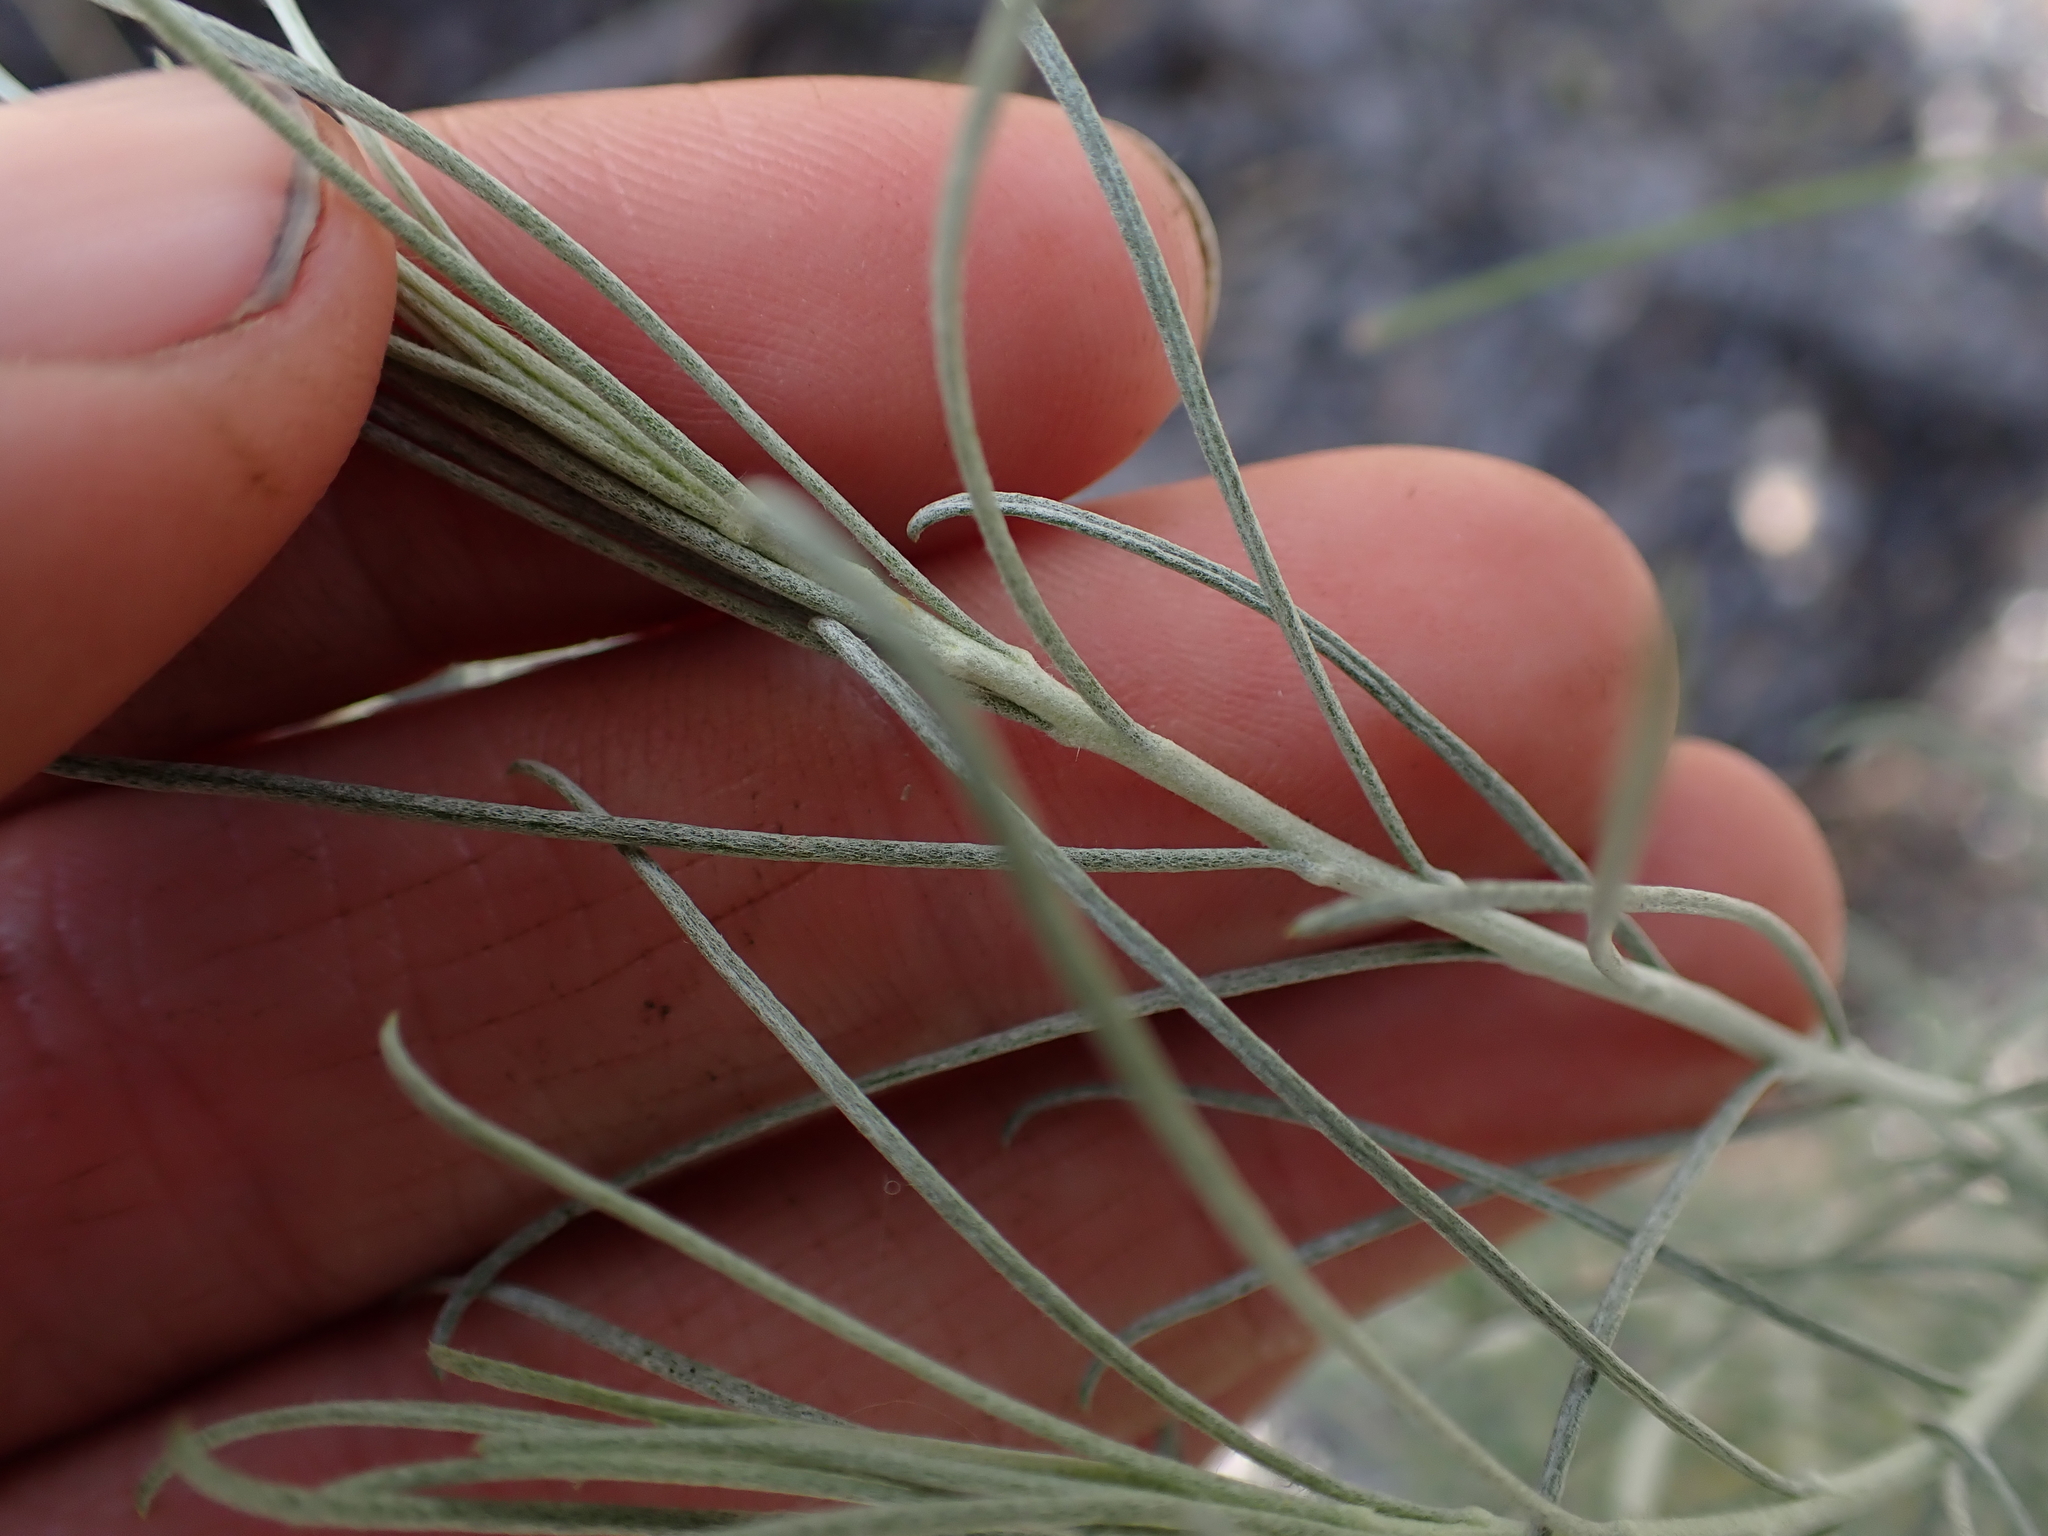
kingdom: Plantae
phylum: Tracheophyta
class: Magnoliopsida
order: Asterales
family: Asteraceae
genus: Ericameria
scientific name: Ericameria nauseosa
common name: Rubber rabbitbrush
